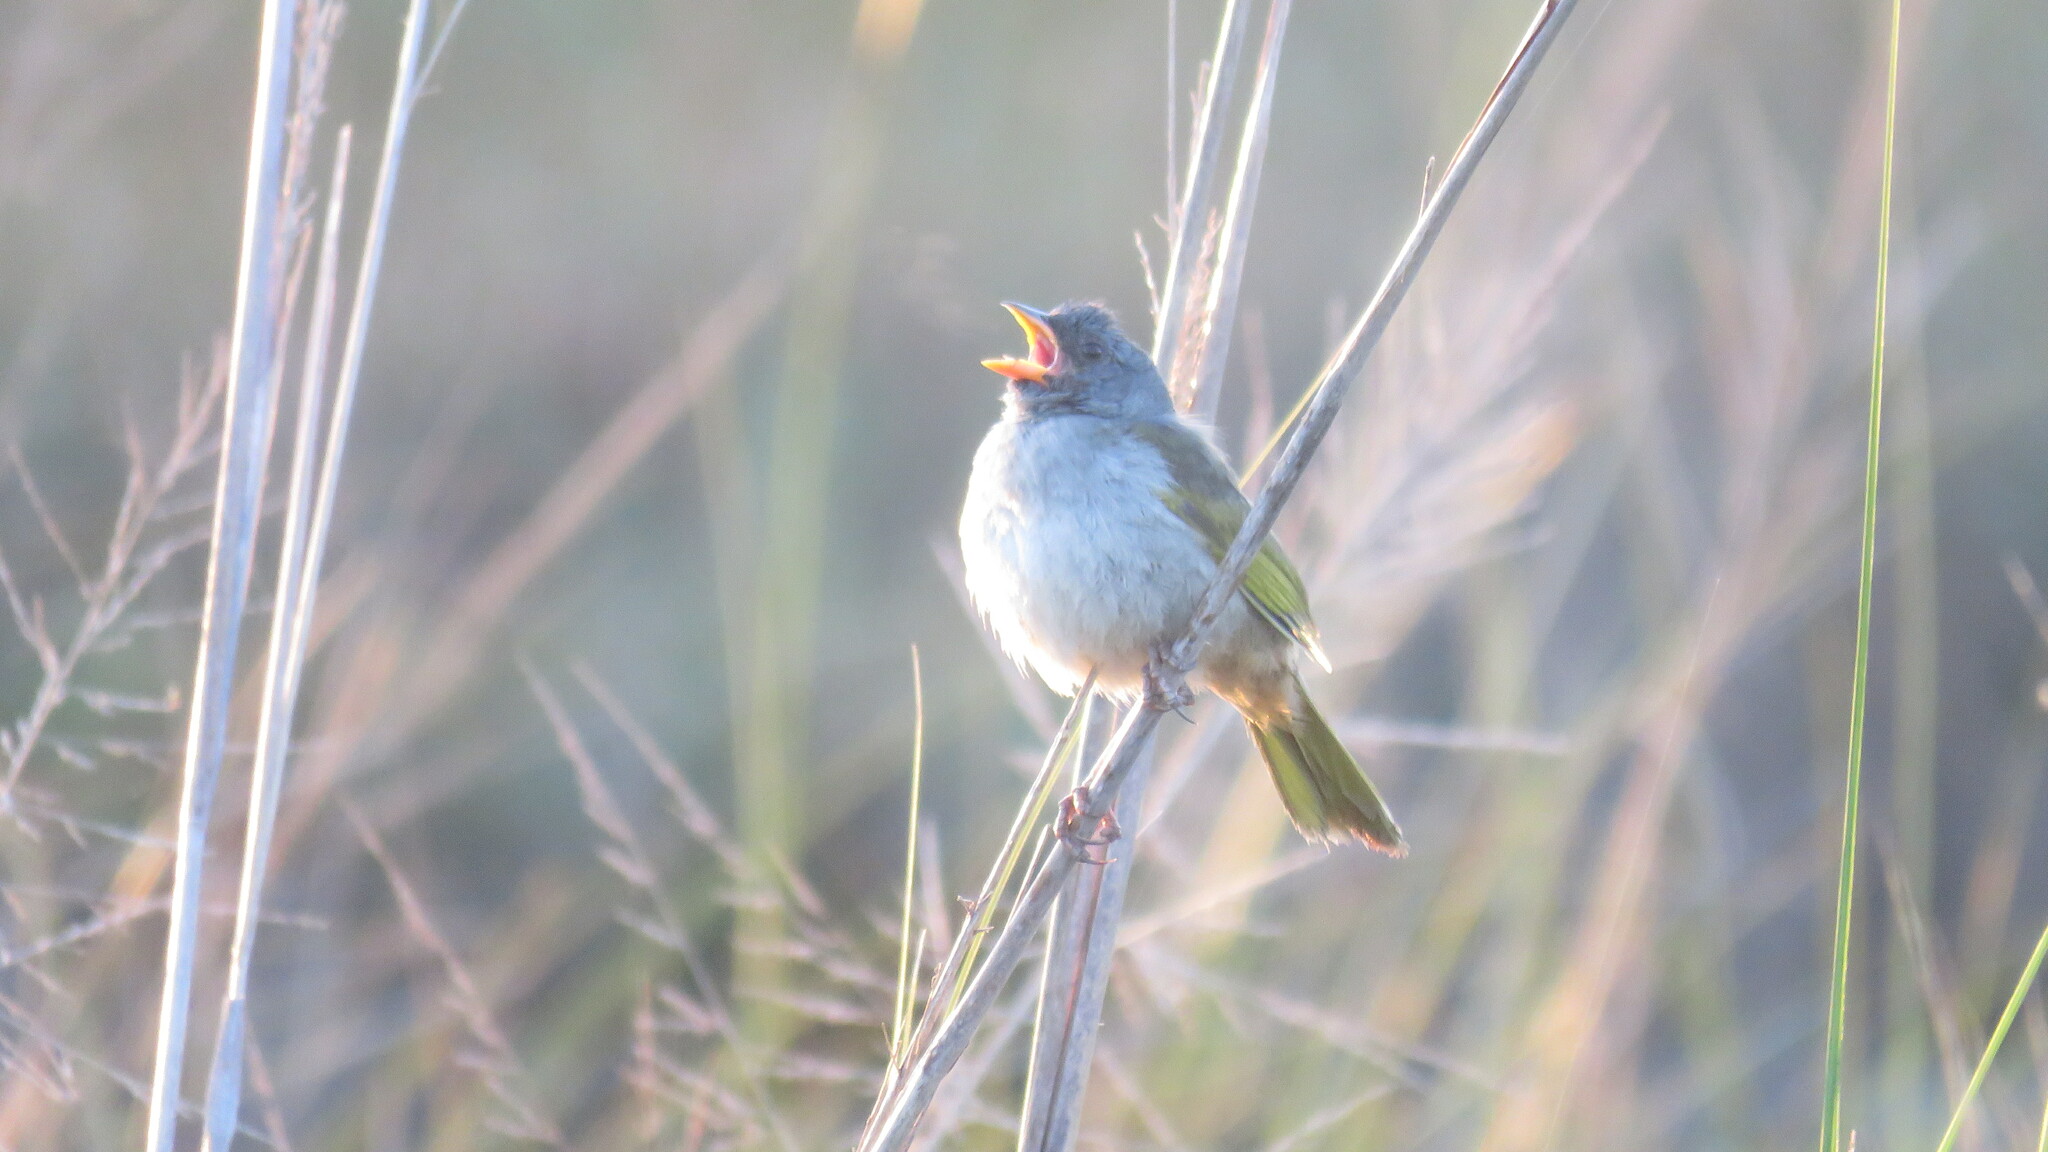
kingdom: Animalia
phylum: Chordata
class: Aves
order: Passeriformes
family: Thraupidae
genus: Embernagra
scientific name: Embernagra platensis
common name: Pampa finch
